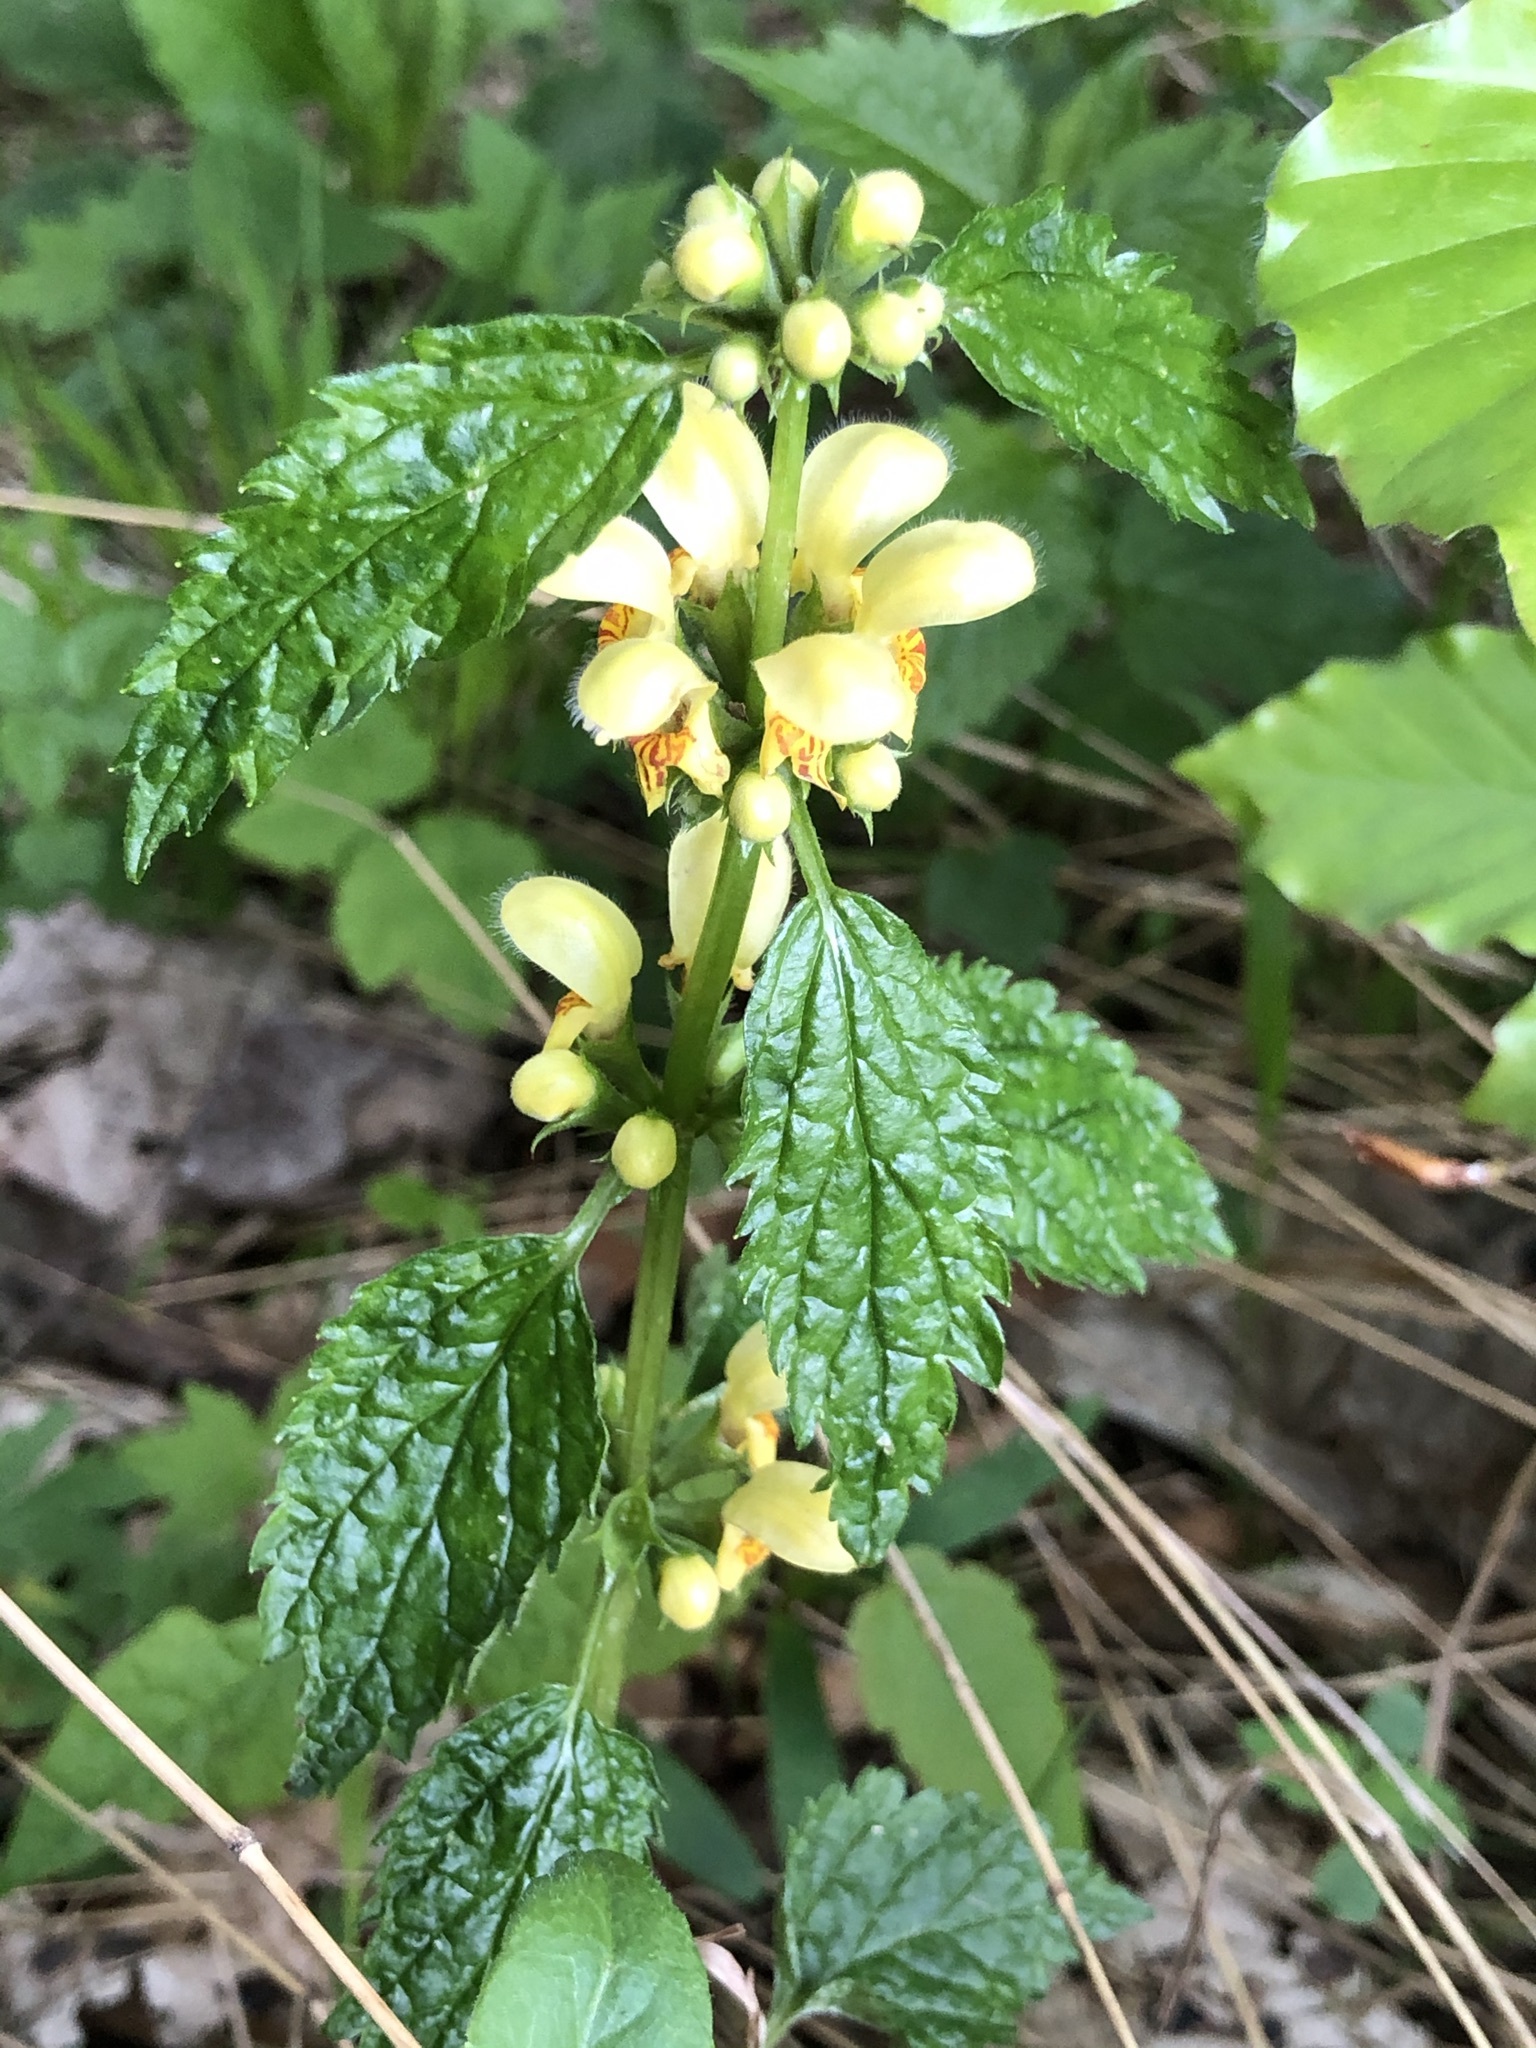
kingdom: Plantae
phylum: Tracheophyta
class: Magnoliopsida
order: Lamiales
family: Lamiaceae
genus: Lamium
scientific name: Lamium galeobdolon
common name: Yellow archangel
